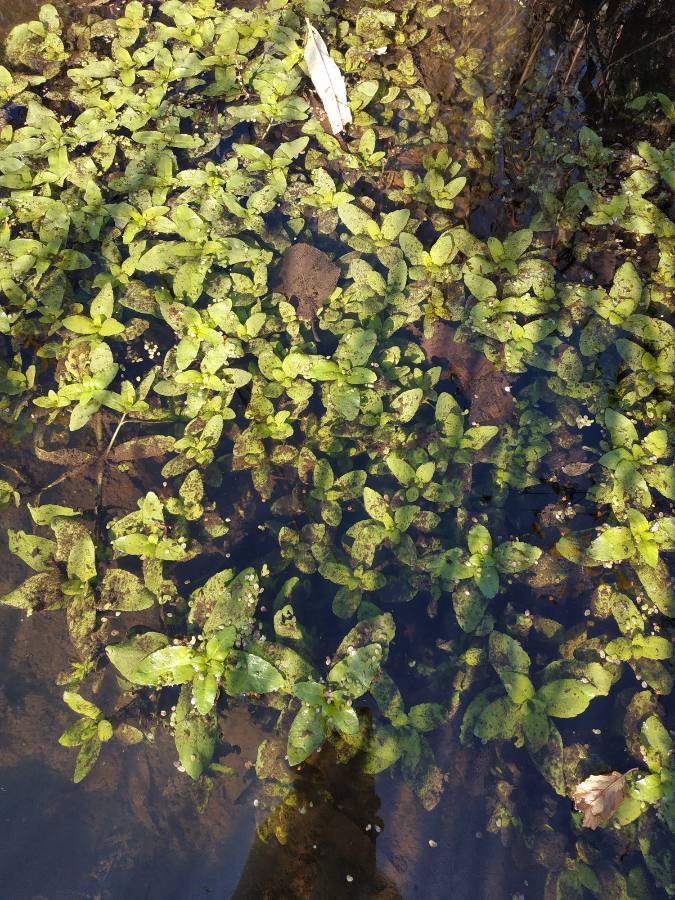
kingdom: Plantae
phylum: Tracheophyta
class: Magnoliopsida
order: Lamiales
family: Plantaginaceae
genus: Veronica
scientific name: Veronica anagallis-aquatica
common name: Water speedwell
